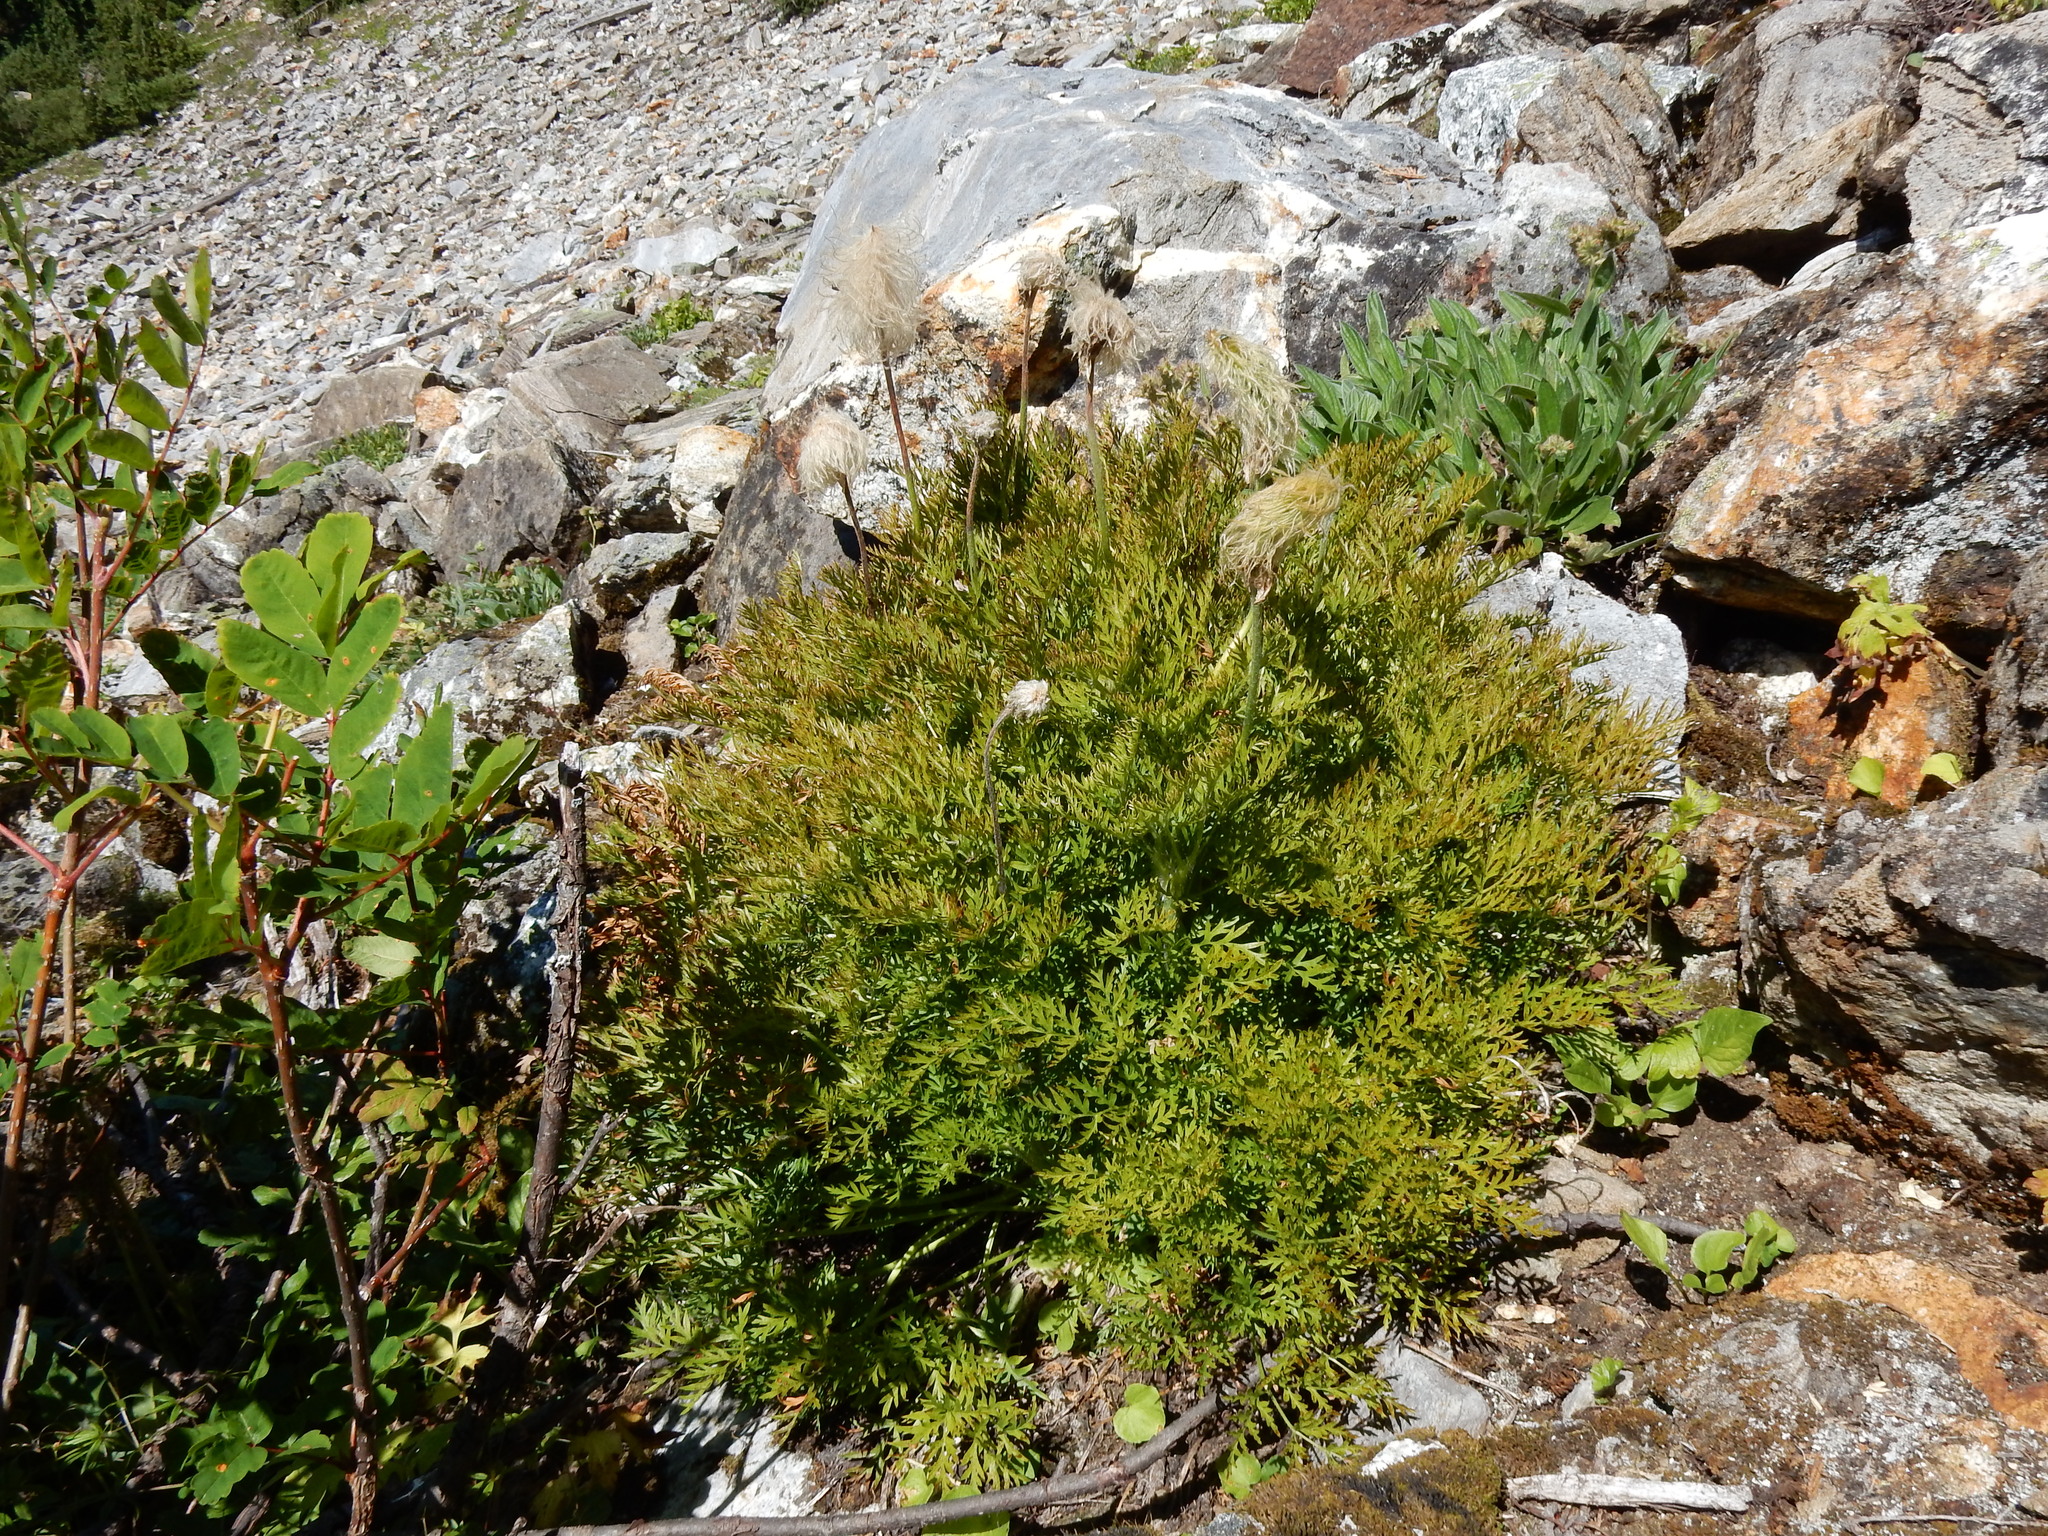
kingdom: Plantae
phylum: Tracheophyta
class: Magnoliopsida
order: Ranunculales
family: Ranunculaceae
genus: Pulsatilla
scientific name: Pulsatilla occidentalis
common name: Mountain pasqueflower
